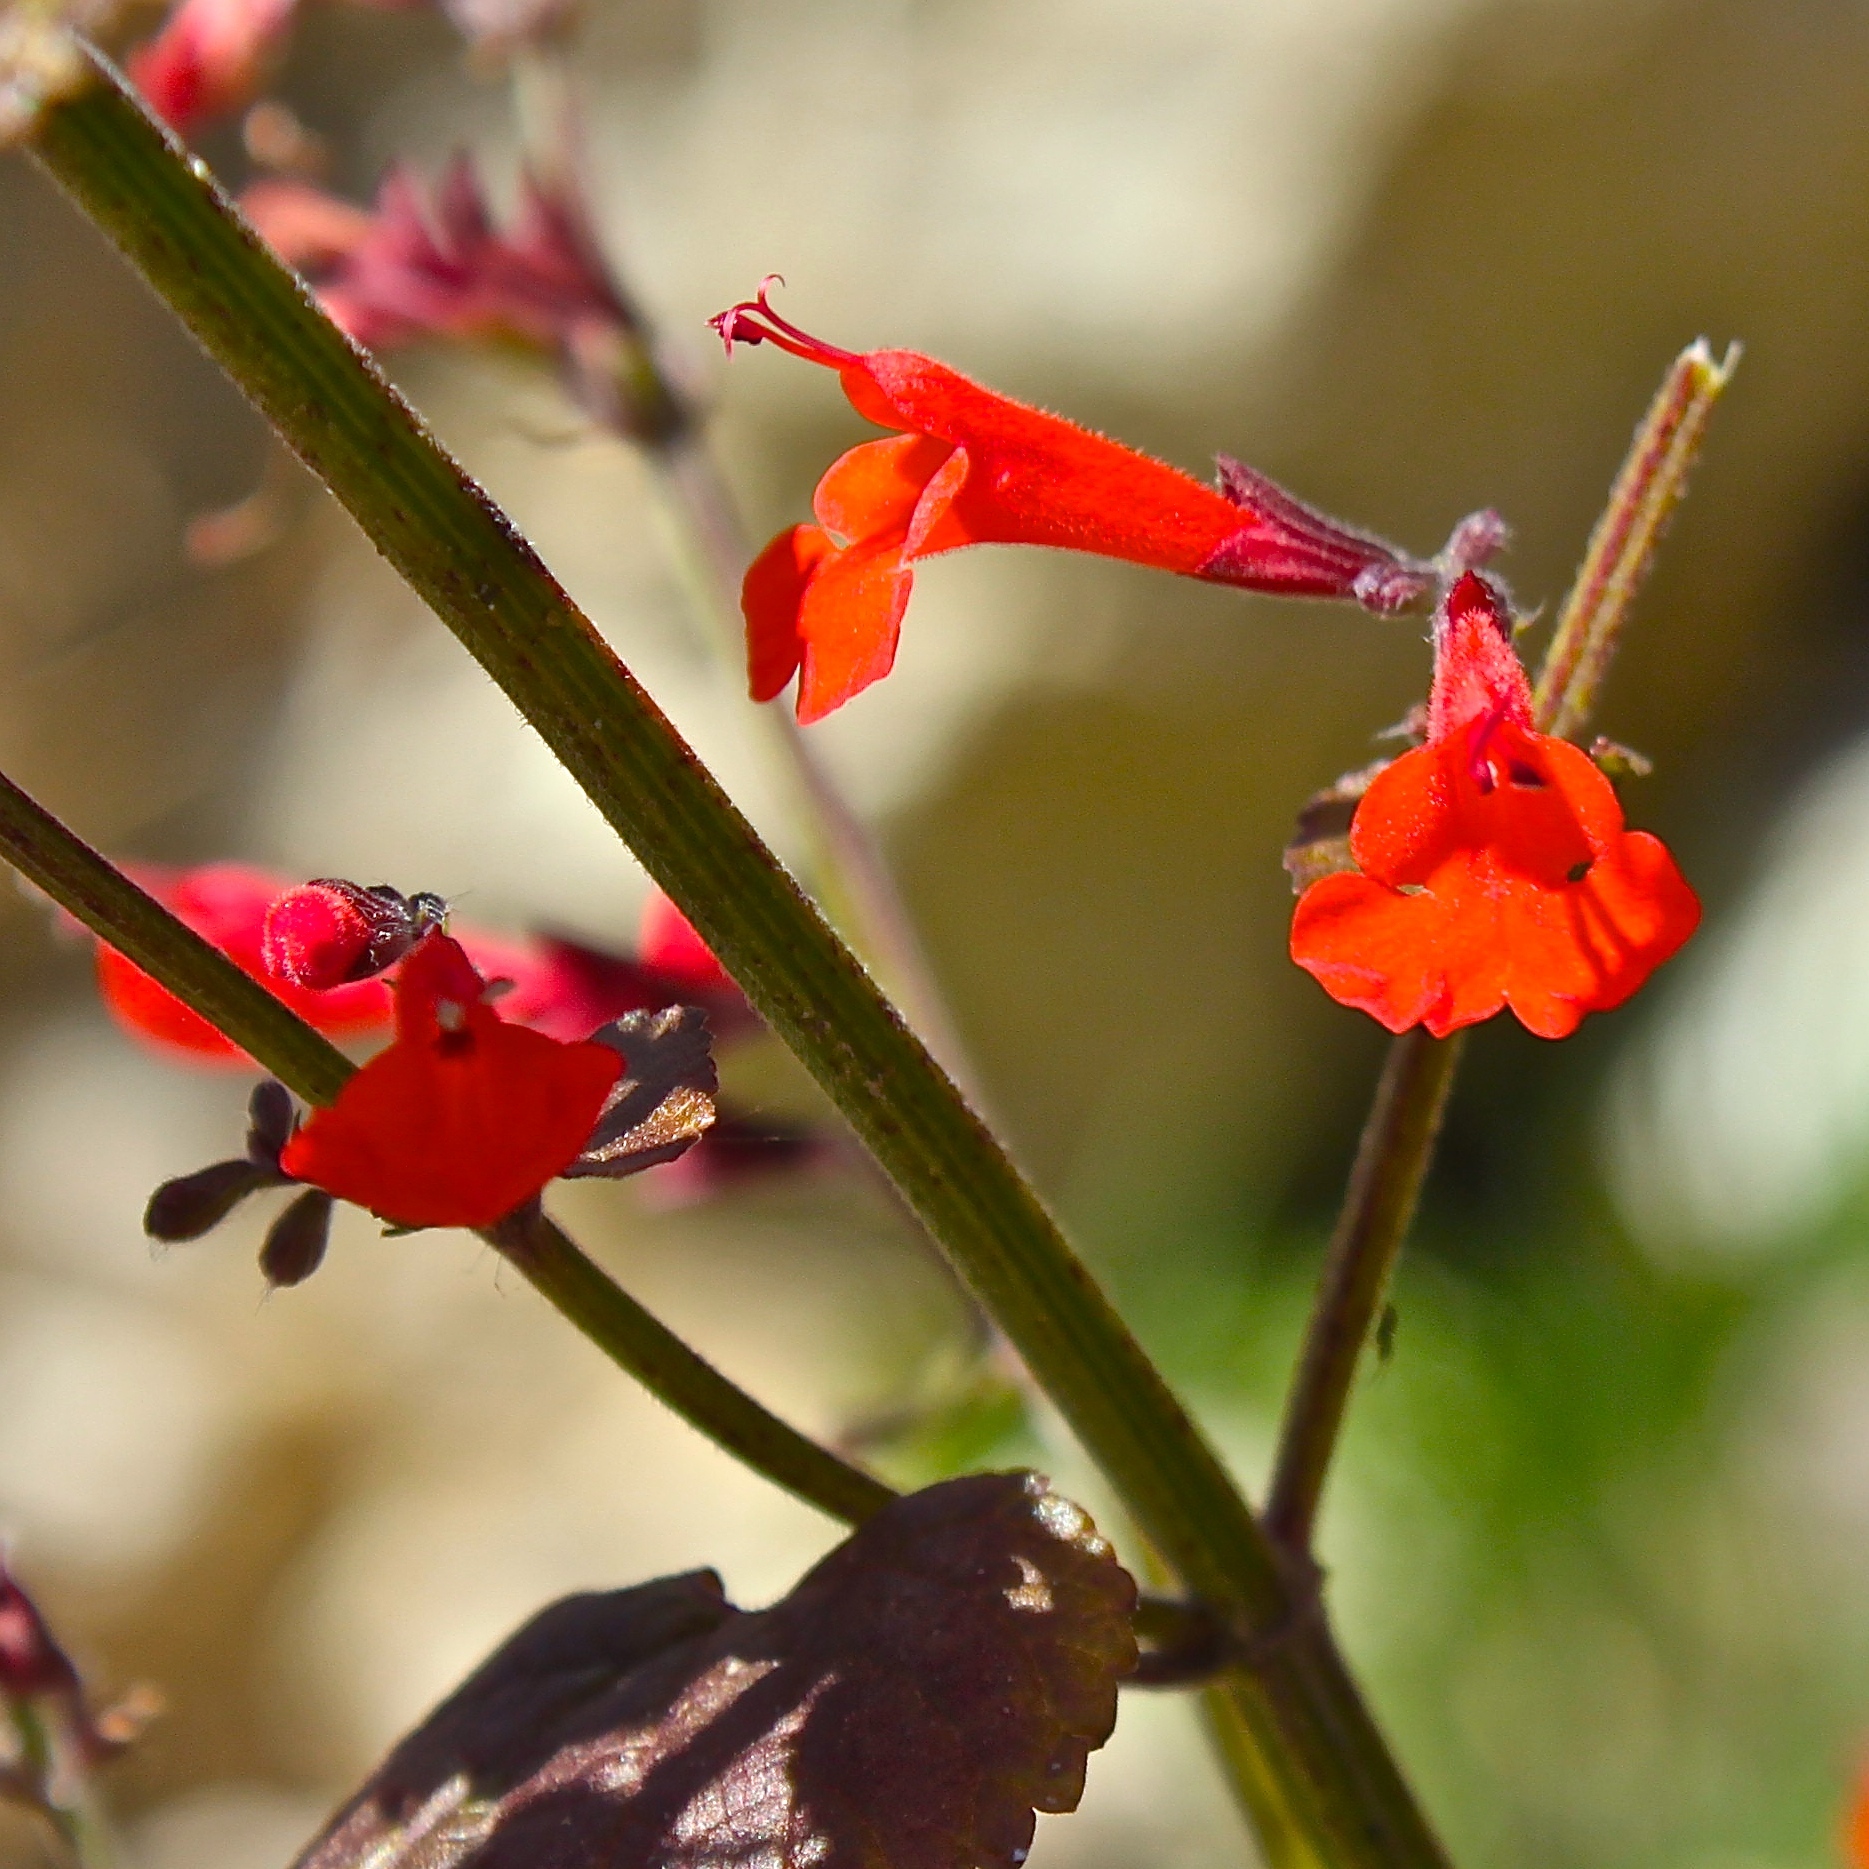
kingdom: Plantae
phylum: Tracheophyta
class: Magnoliopsida
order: Lamiales
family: Lamiaceae
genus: Salvia
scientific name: Salvia coccinea
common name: Blood sage
